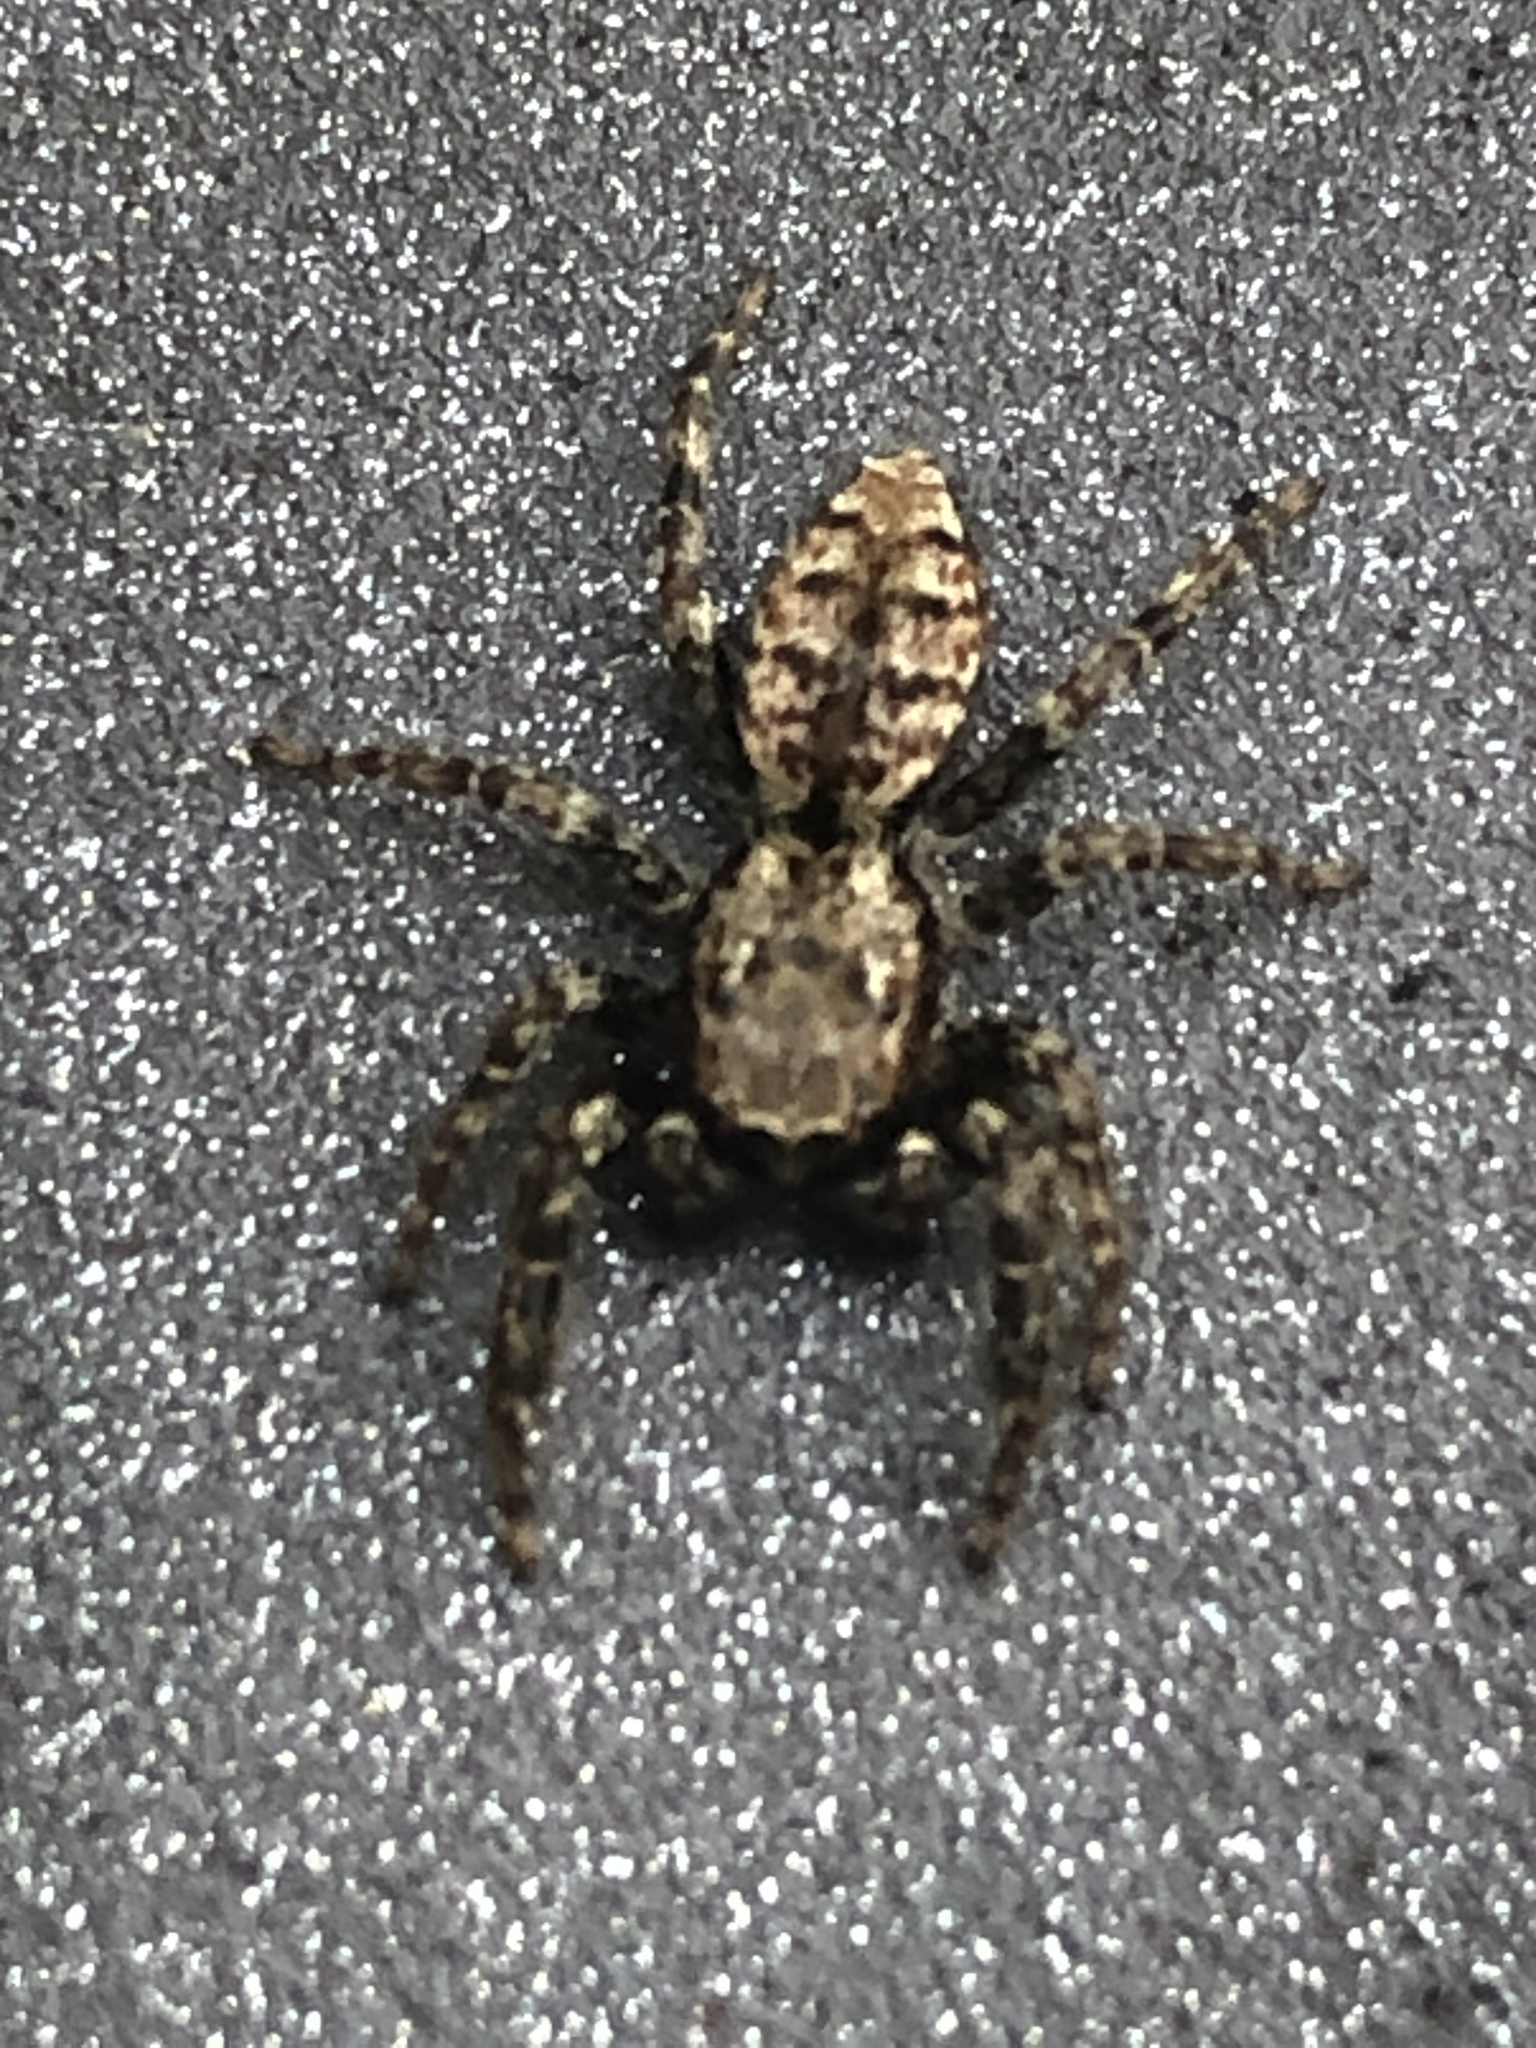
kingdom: Animalia
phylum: Arthropoda
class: Arachnida
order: Araneae
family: Salticidae
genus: Marpissa
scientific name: Marpissa muscosa
